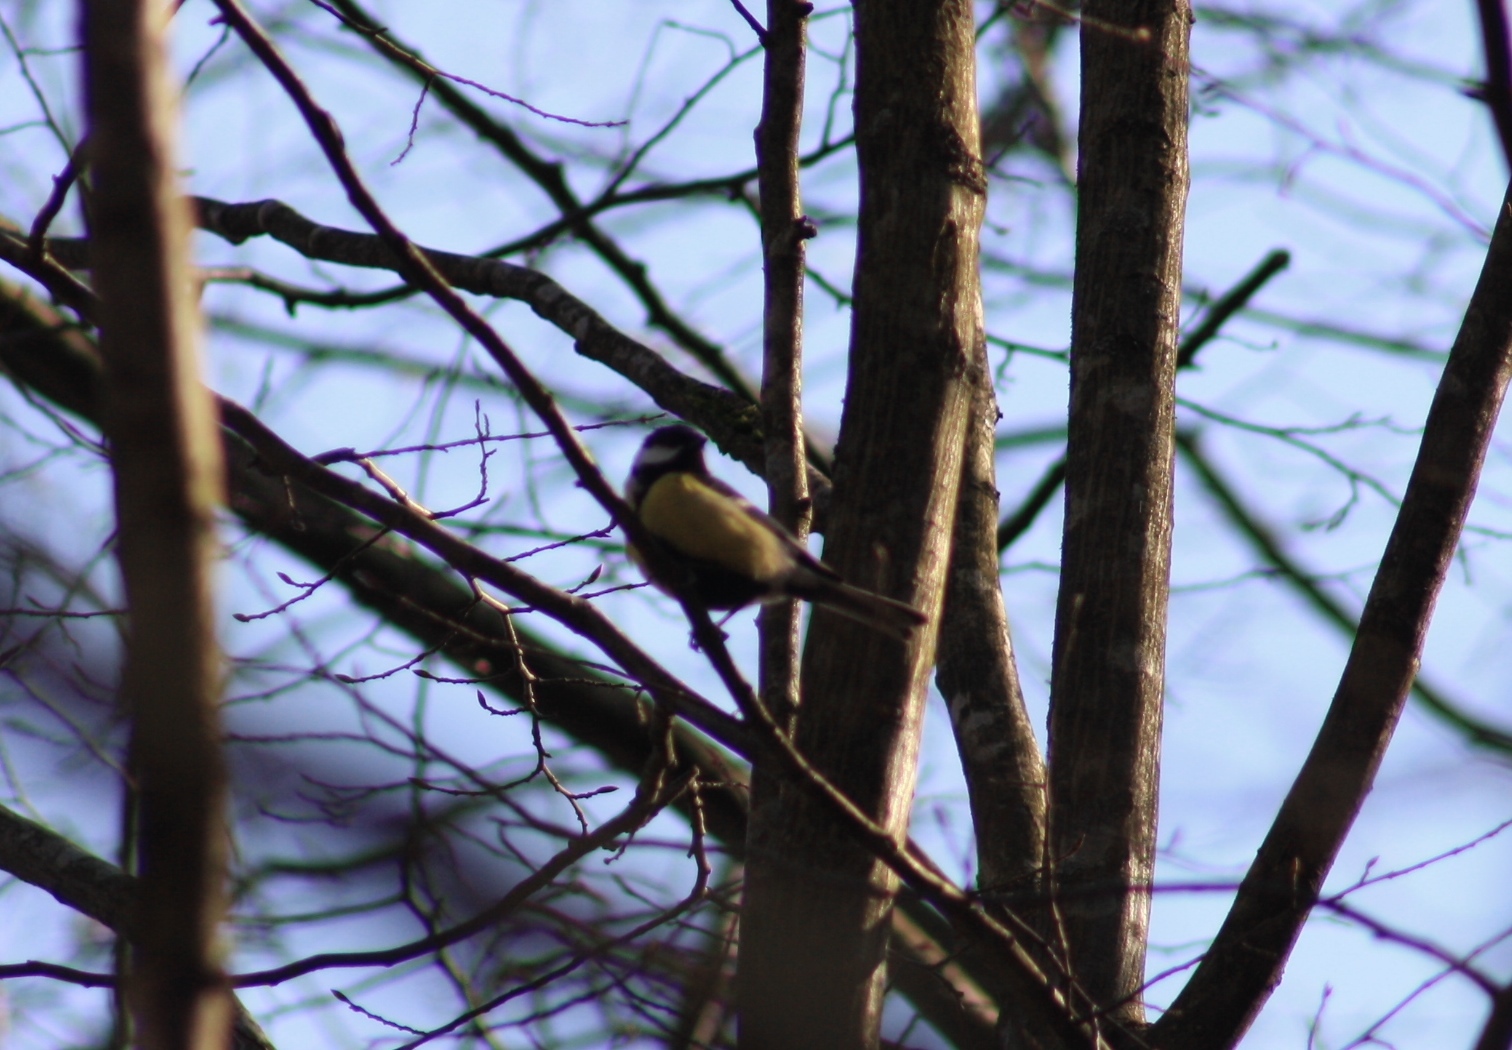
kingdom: Animalia
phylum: Chordata
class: Aves
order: Passeriformes
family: Paridae
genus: Parus
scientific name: Parus major
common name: Great tit
